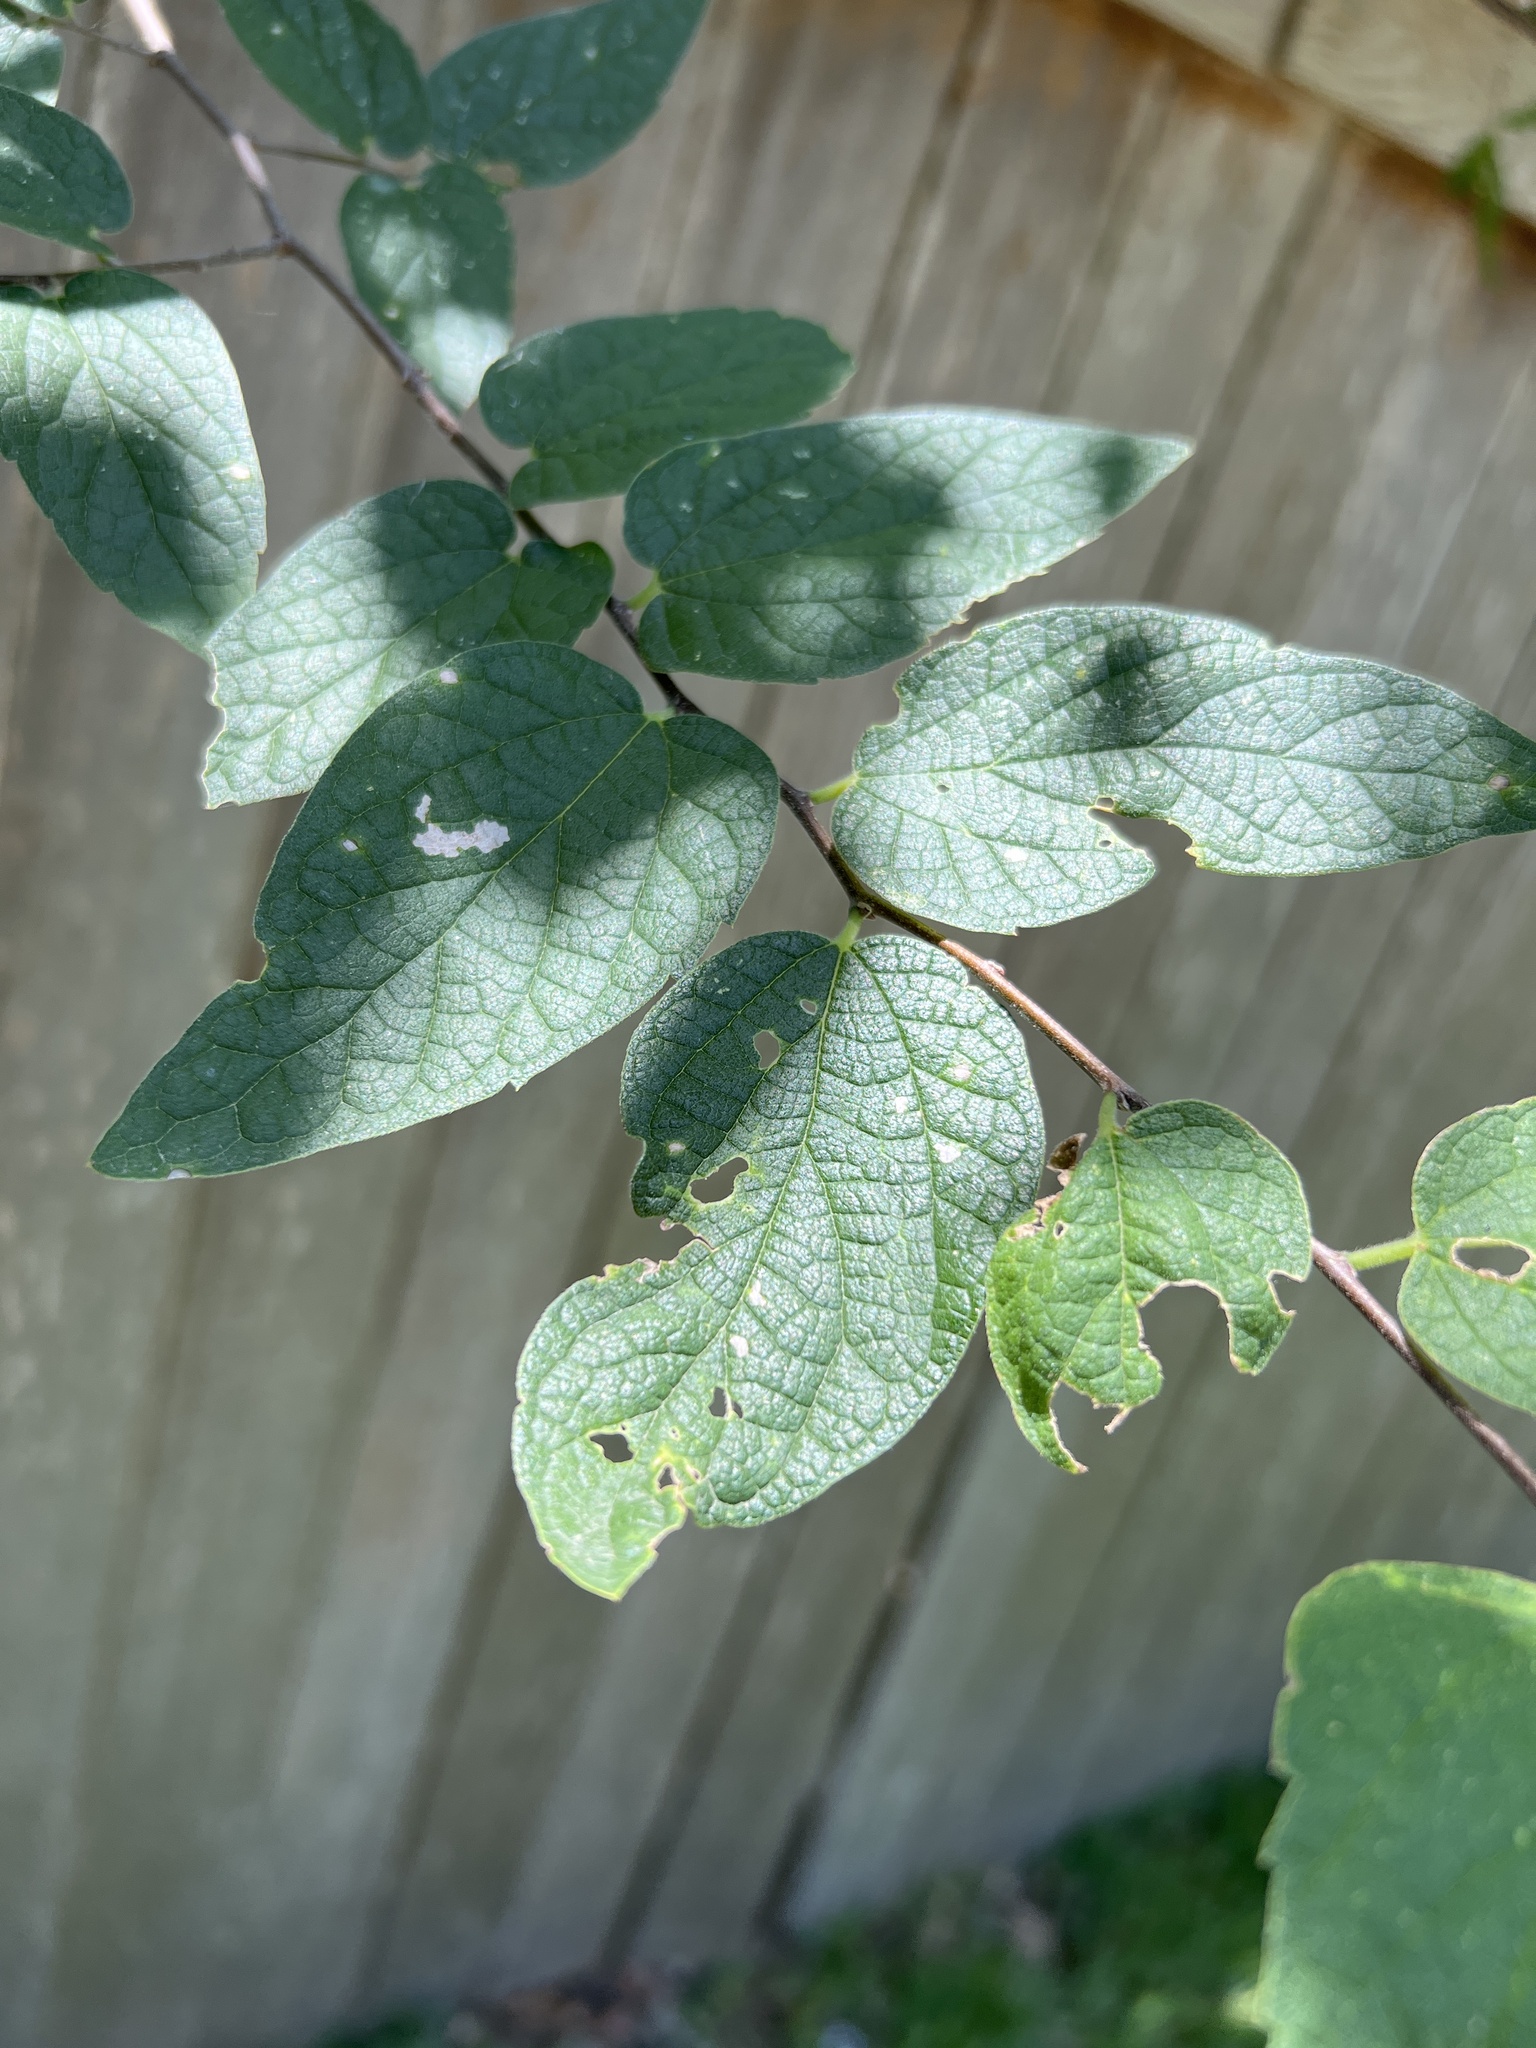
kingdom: Plantae
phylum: Tracheophyta
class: Magnoliopsida
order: Rosales
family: Cannabaceae
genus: Celtis
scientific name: Celtis reticulata
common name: Netleaf hackberry
